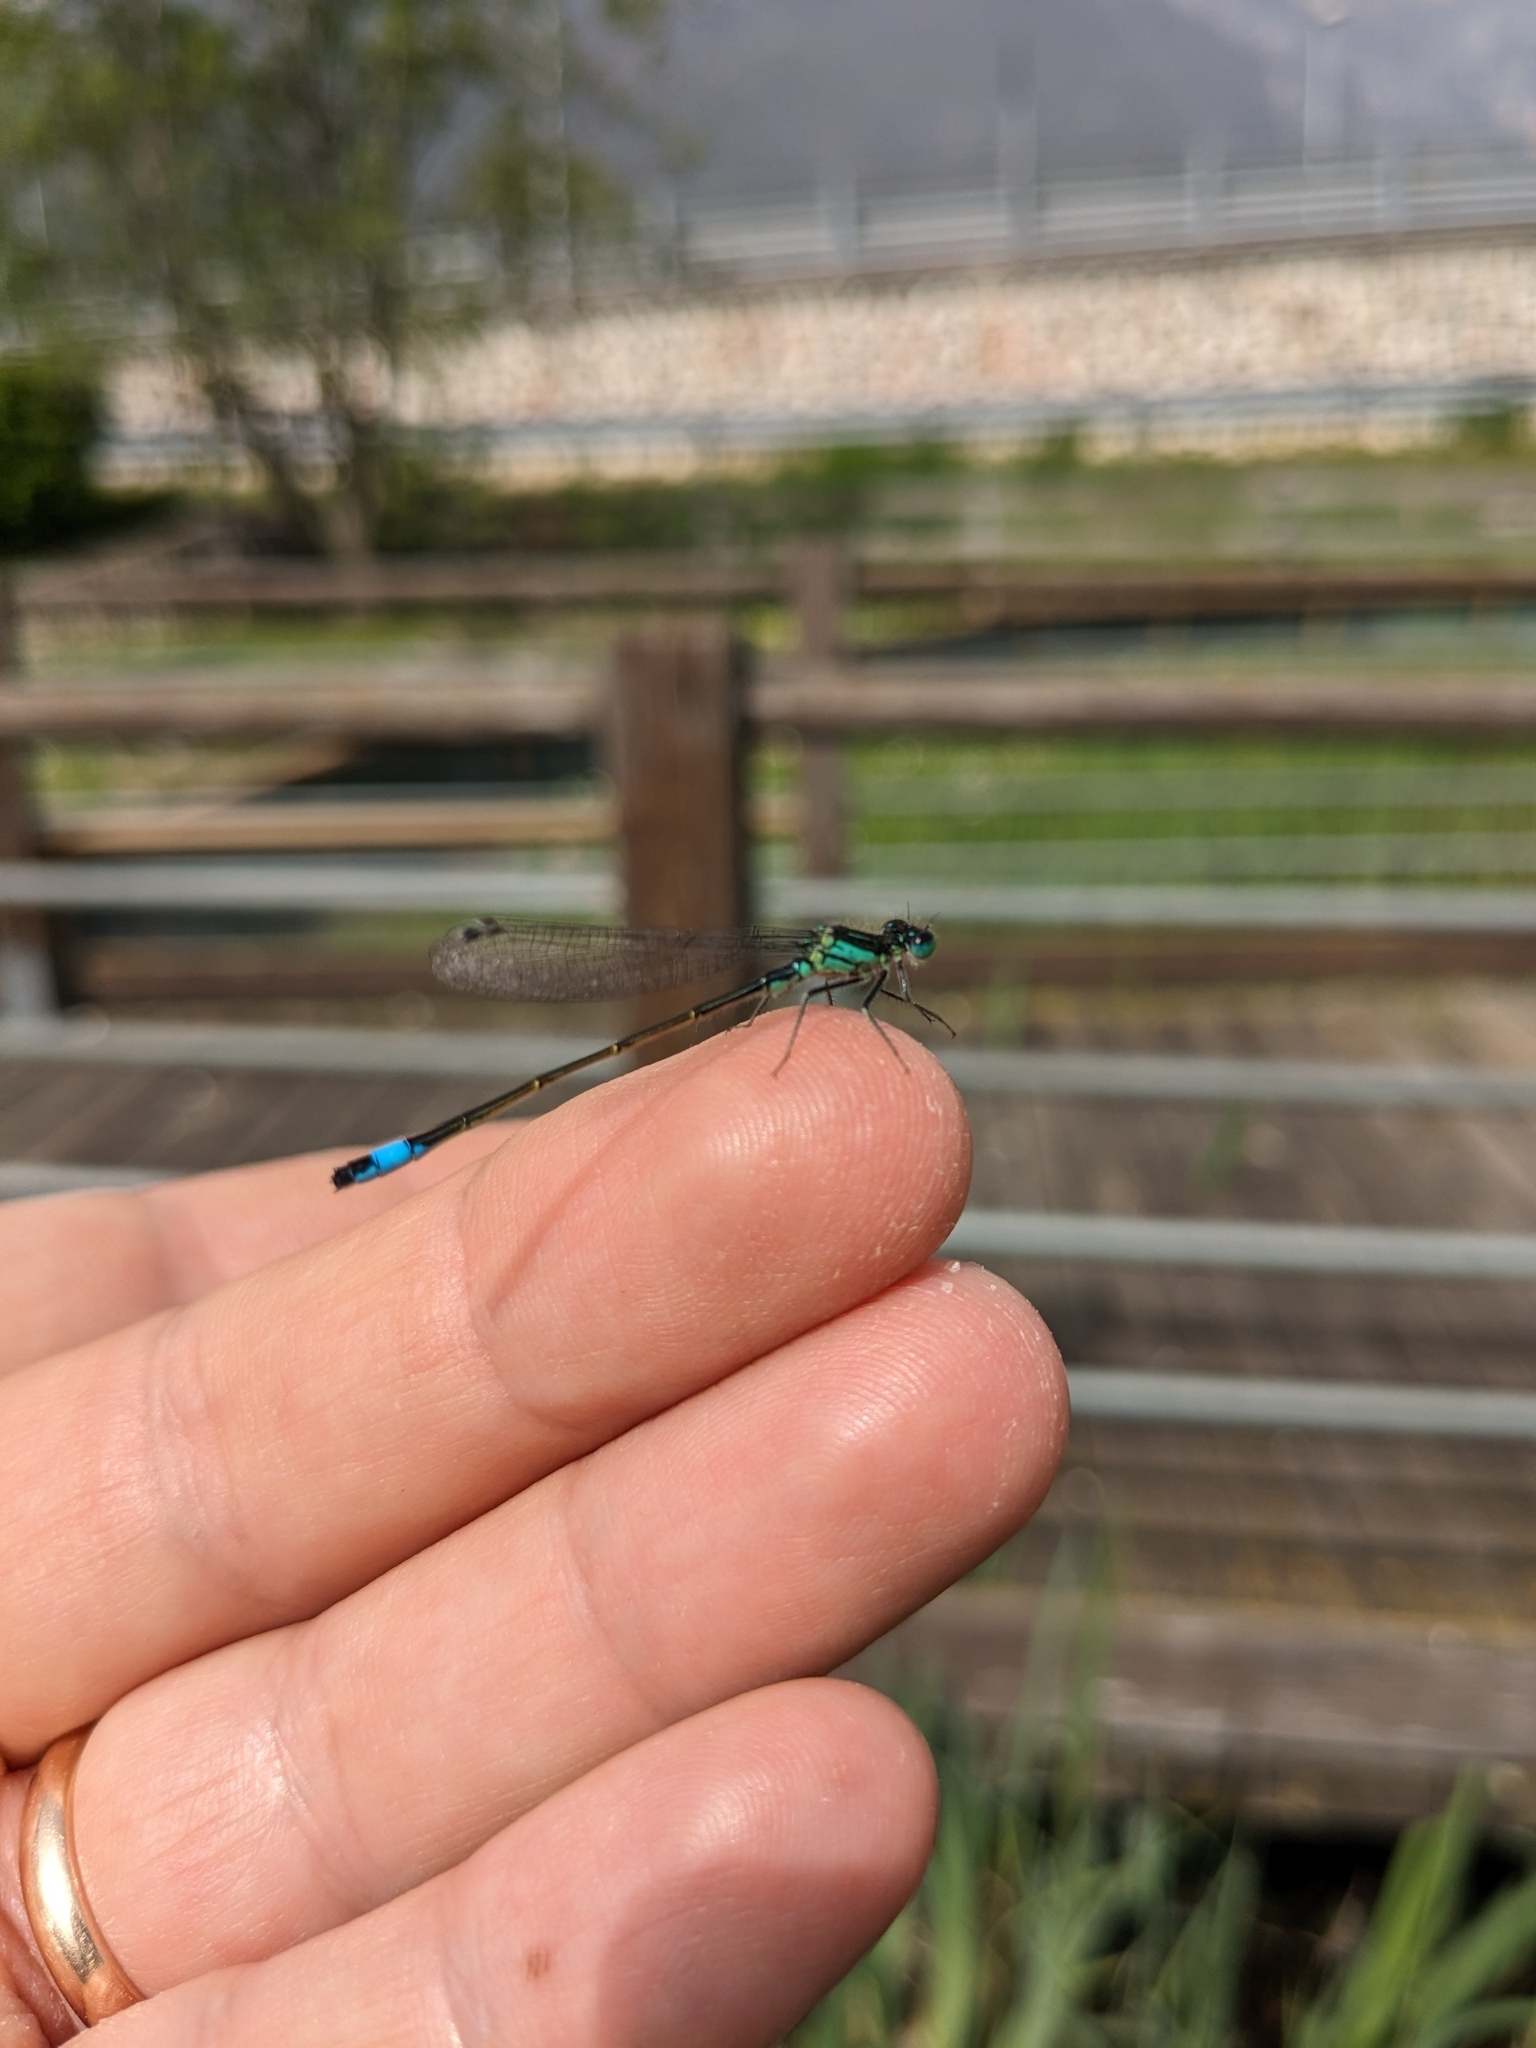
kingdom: Animalia
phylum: Arthropoda
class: Insecta
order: Odonata
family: Coenagrionidae
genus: Ischnura
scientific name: Ischnura elegans
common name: Blue-tailed damselfly
